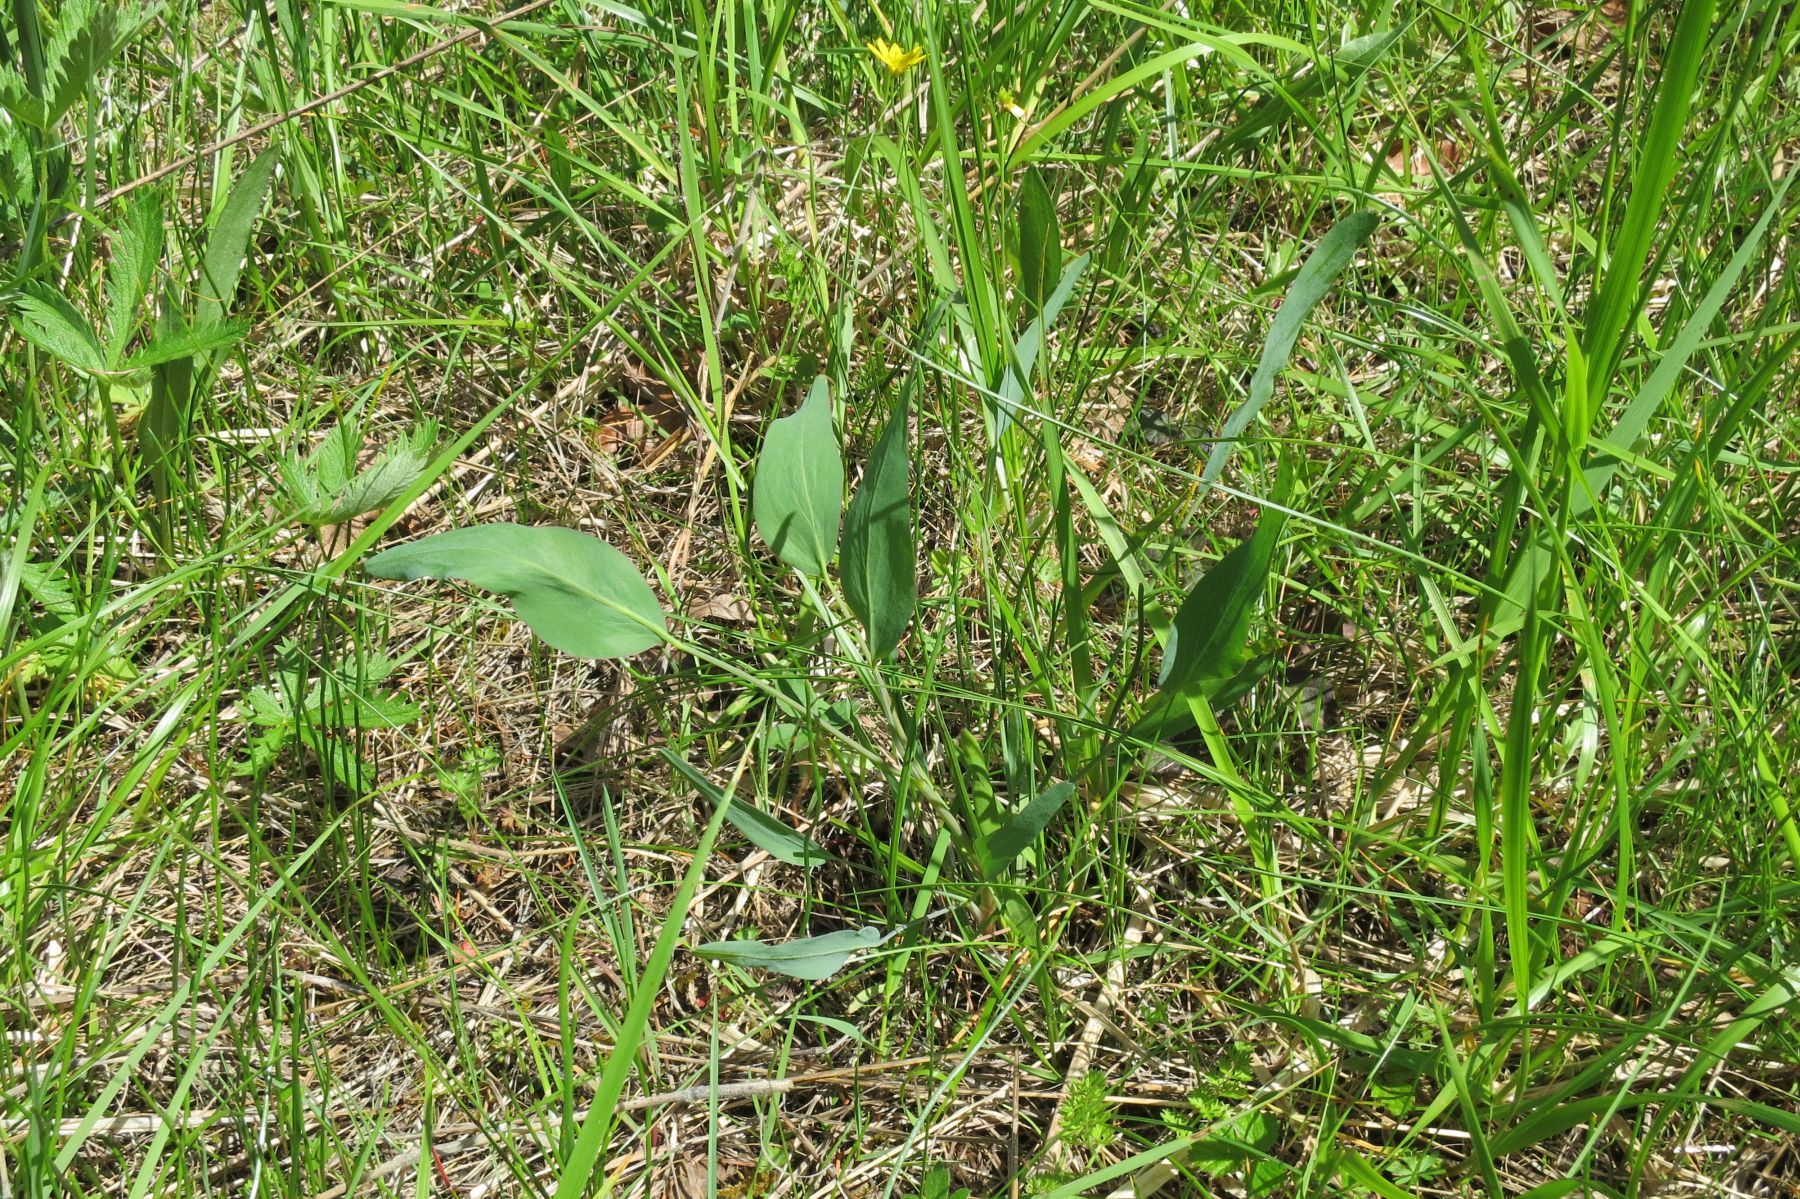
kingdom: Plantae
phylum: Tracheophyta
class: Magnoliopsida
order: Apiales
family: Apiaceae
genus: Lomatium
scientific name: Lomatium nudicaule
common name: Pestle lomatium
